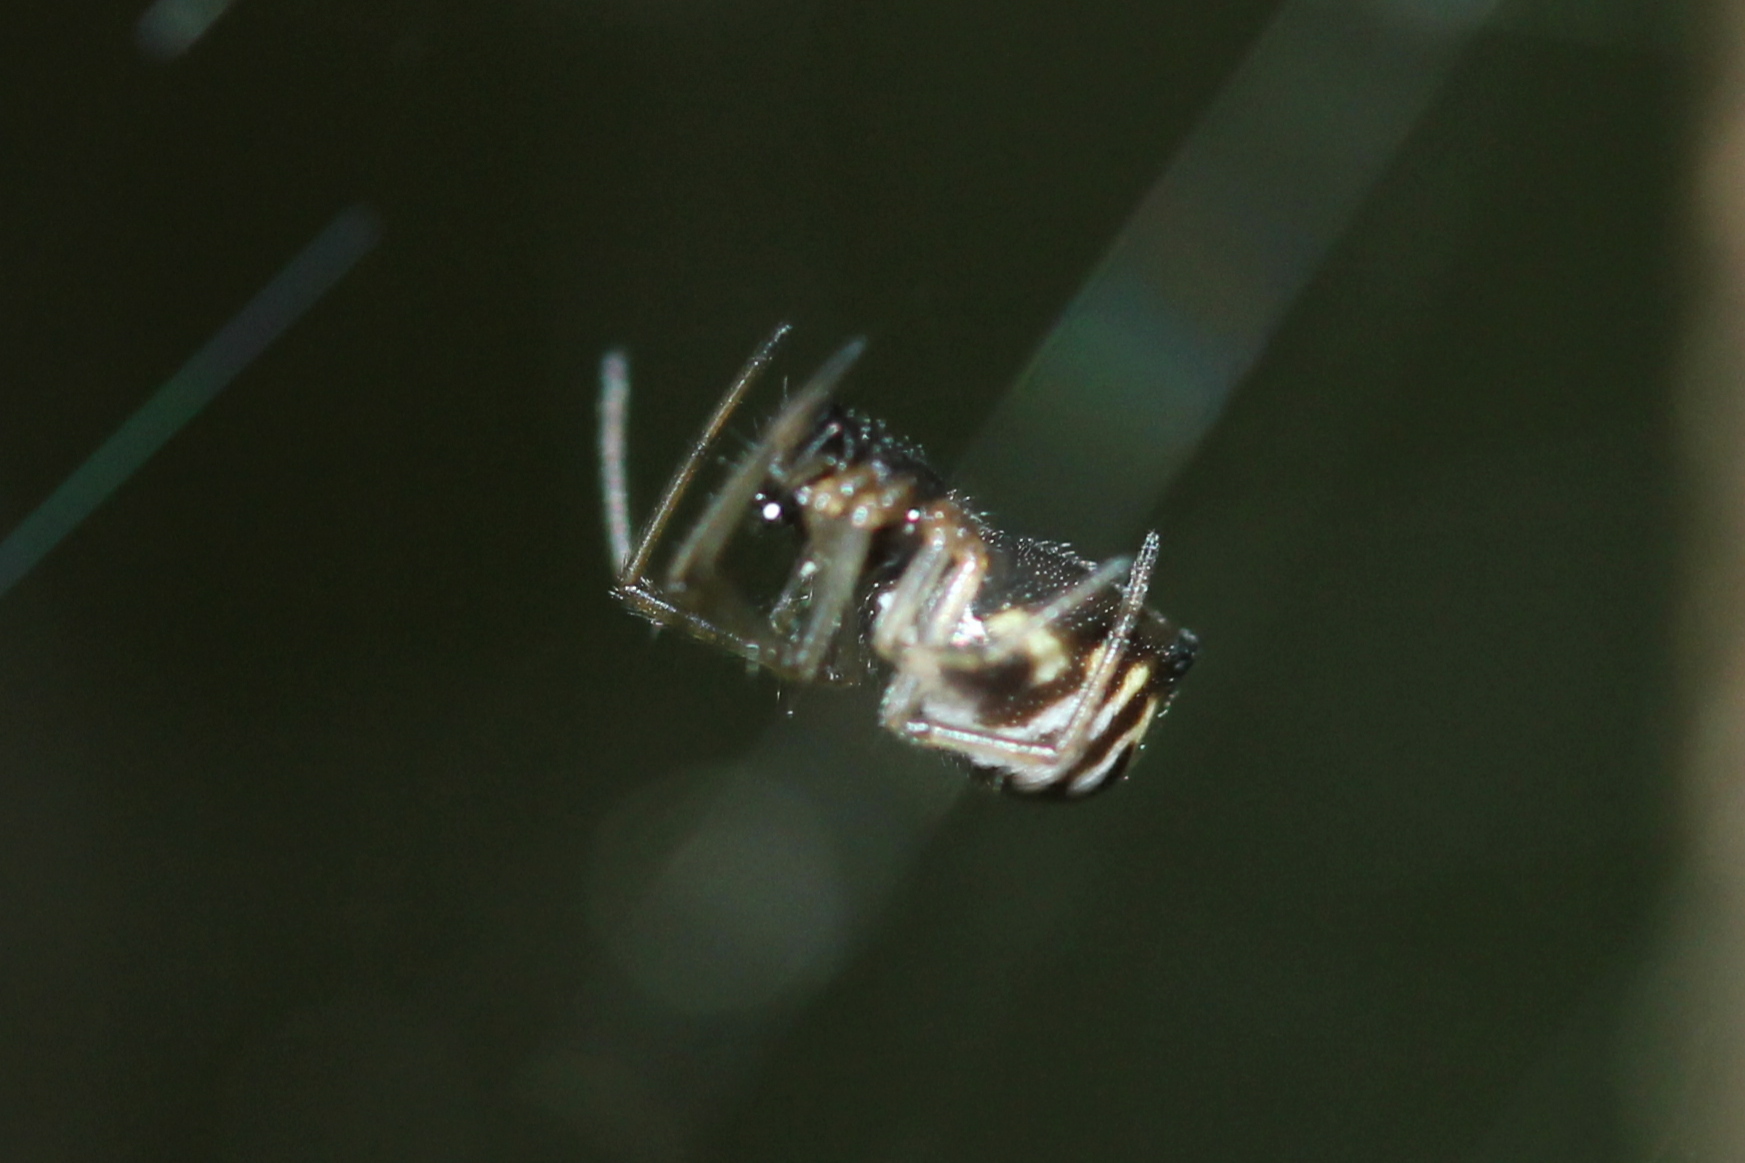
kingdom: Animalia
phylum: Arthropoda
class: Arachnida
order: Araneae
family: Linyphiidae
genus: Frontinella
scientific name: Frontinella pyramitela
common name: Bowl-and-doily spider
